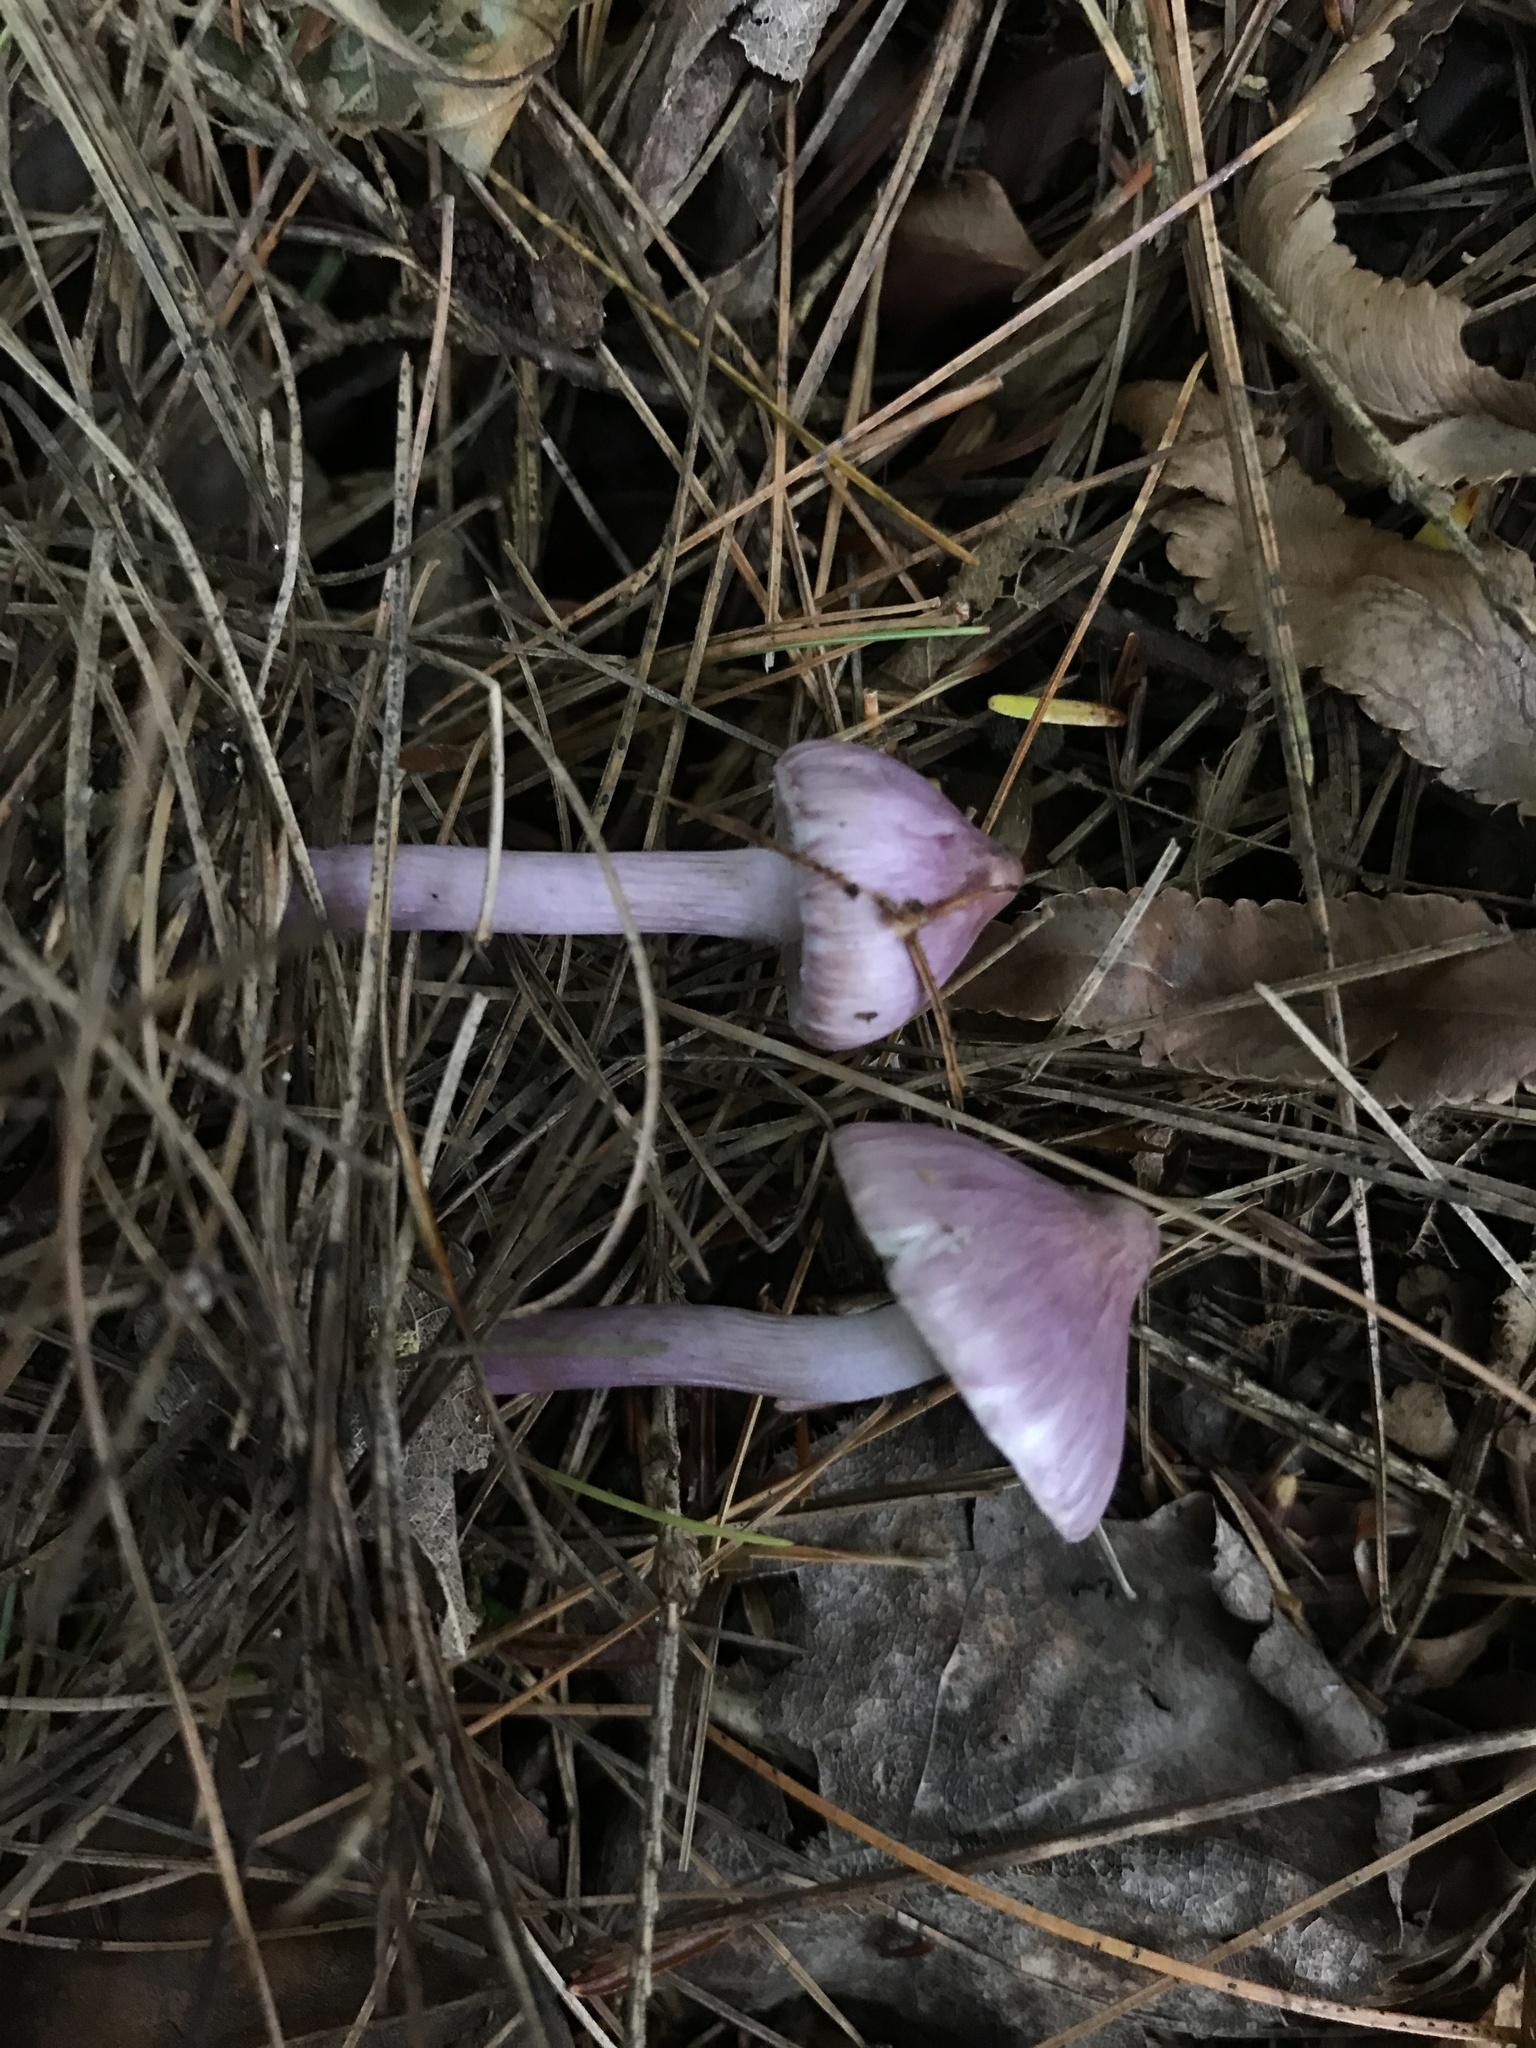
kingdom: Fungi
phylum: Basidiomycota
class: Agaricomycetes
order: Agaricales
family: Inocybaceae
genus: Inocybe
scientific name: Inocybe geophylla
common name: White fibrecap
